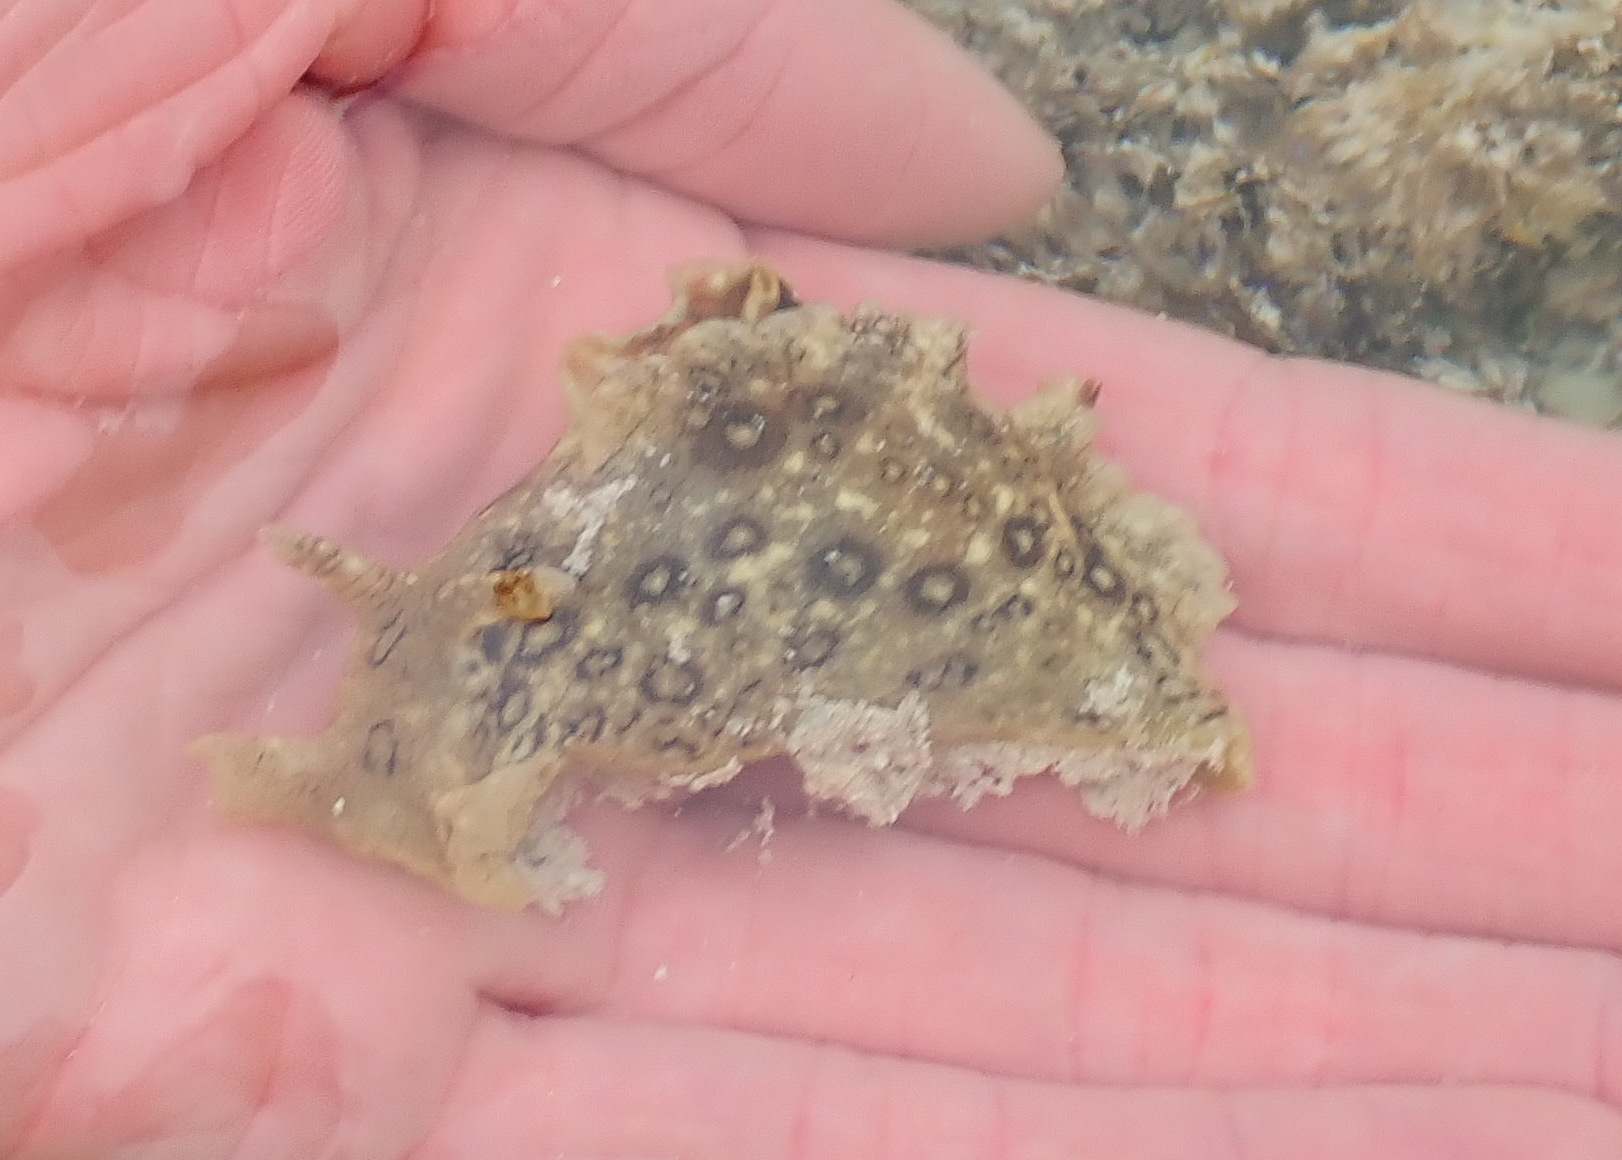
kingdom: Animalia
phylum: Mollusca
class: Gastropoda
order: Aplysiida
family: Aplysiidae
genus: Aplysia
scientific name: Aplysia dactylomela
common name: Large-spotted sea hare
